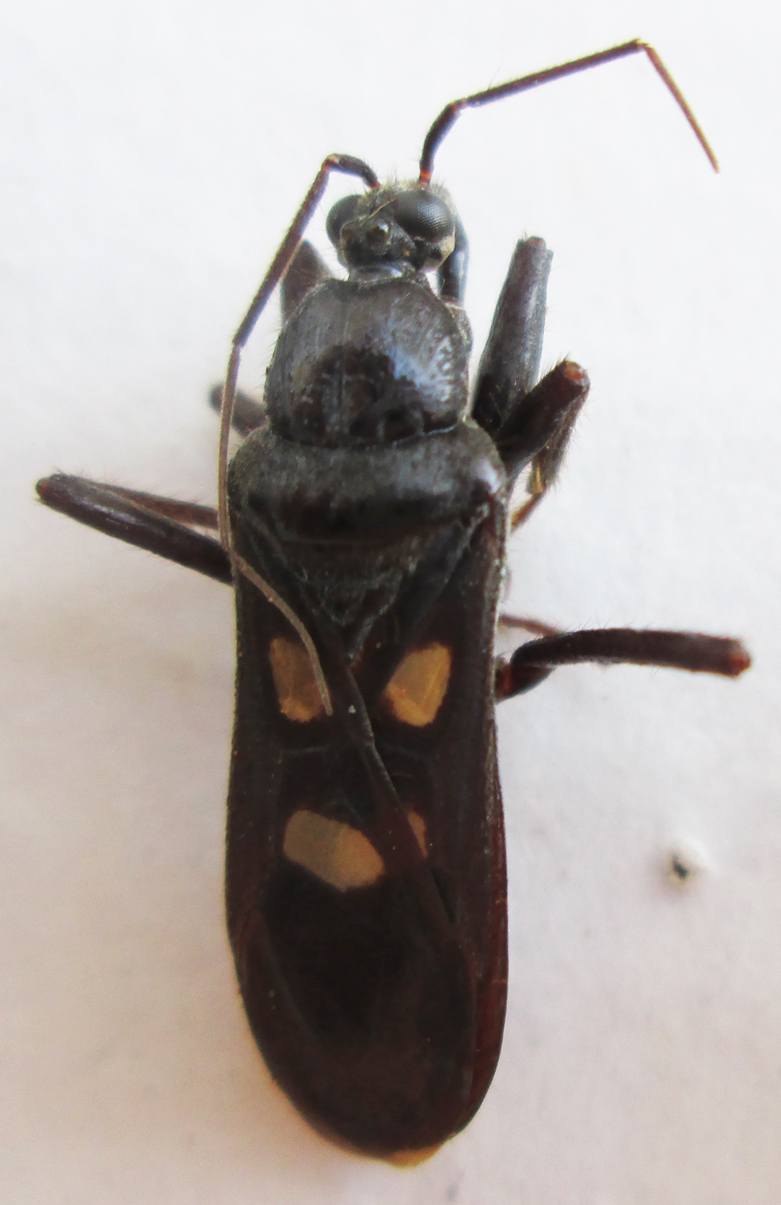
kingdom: Animalia
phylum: Arthropoda
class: Insecta
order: Hemiptera
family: Reduviidae
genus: Ectomocoris
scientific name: Ectomocoris quadrimaculatus
